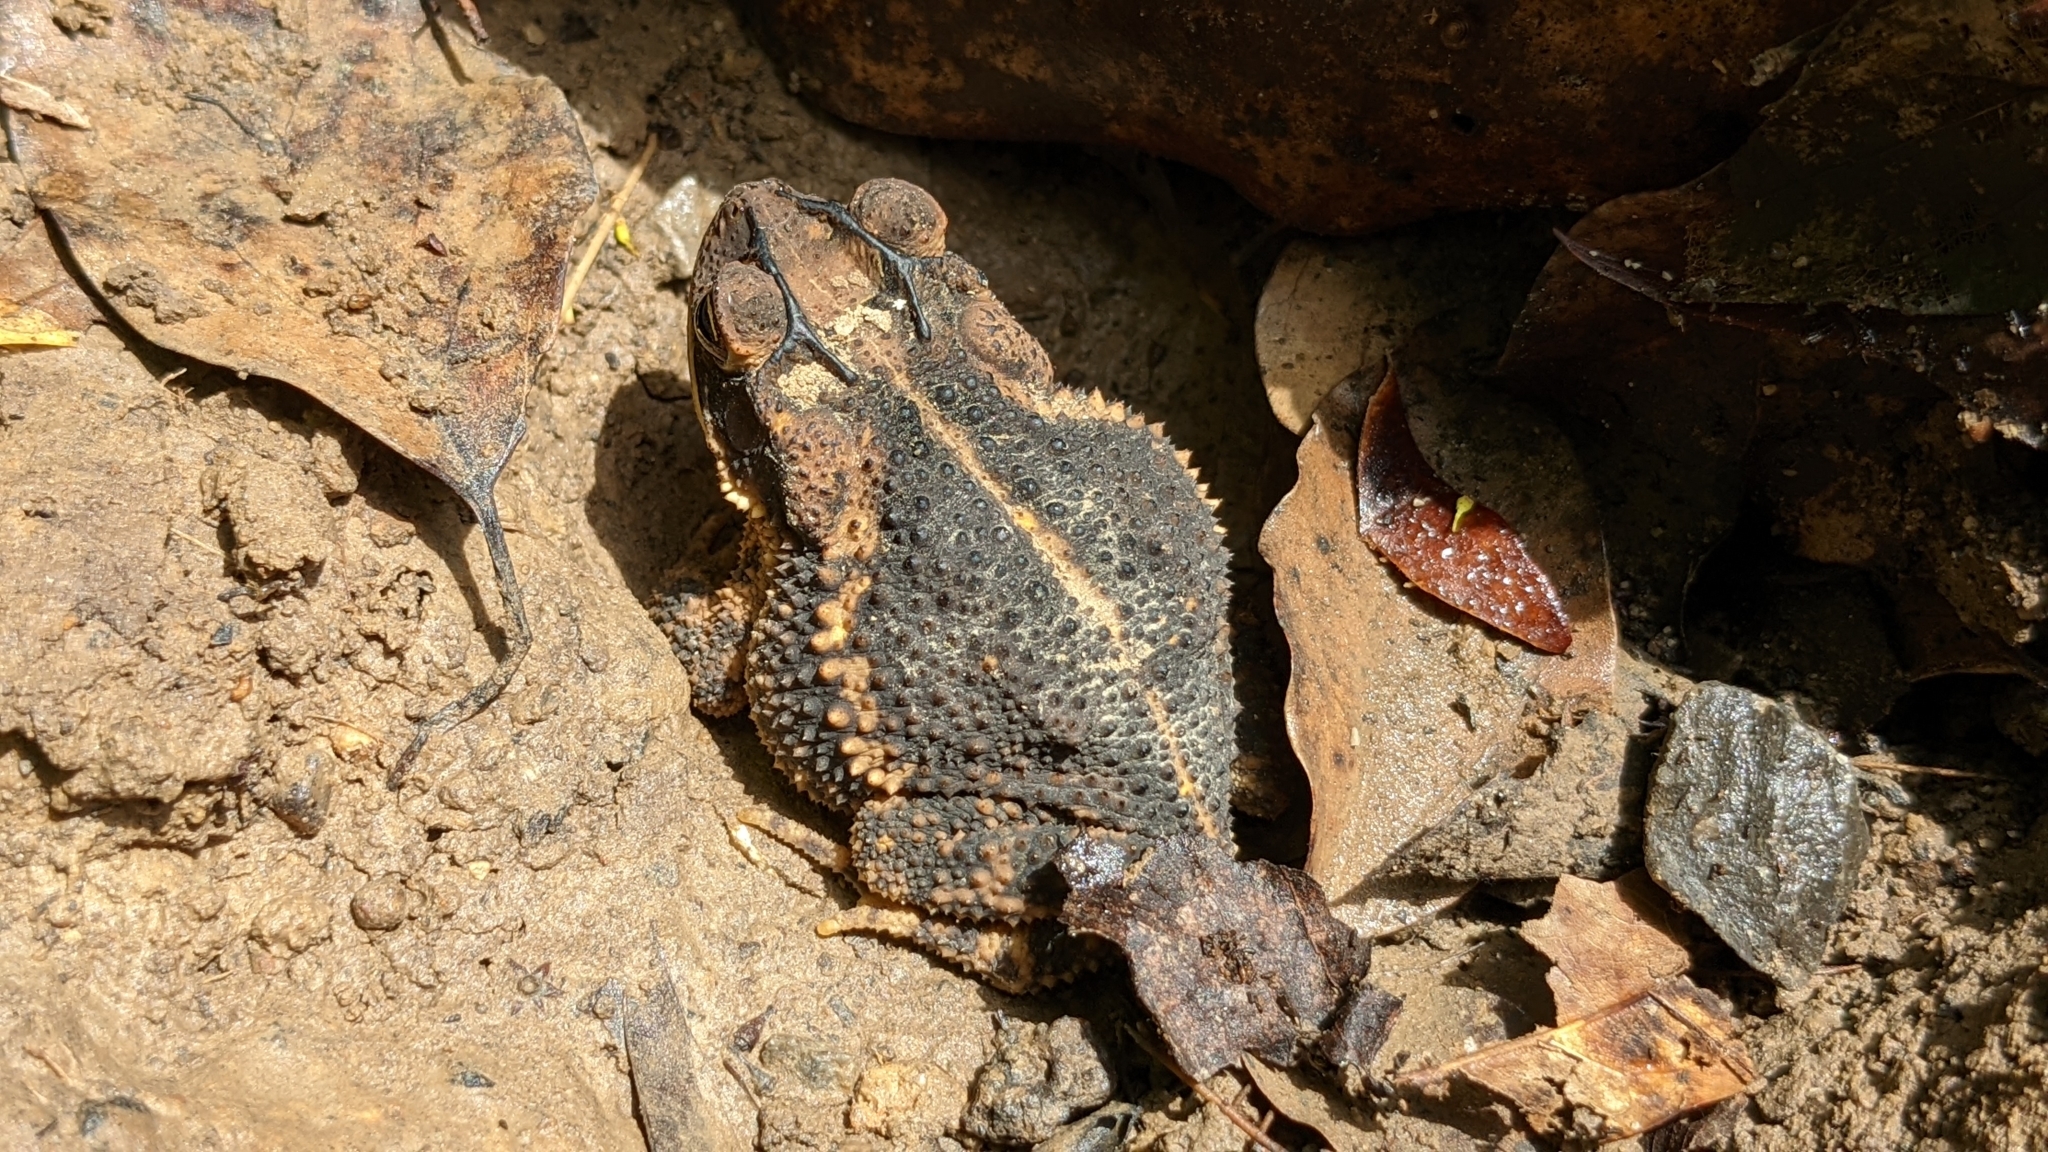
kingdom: Animalia
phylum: Chordata
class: Amphibia
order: Anura
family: Bufonidae
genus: Incilius
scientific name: Incilius nebulifer
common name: Gulf coast toad
